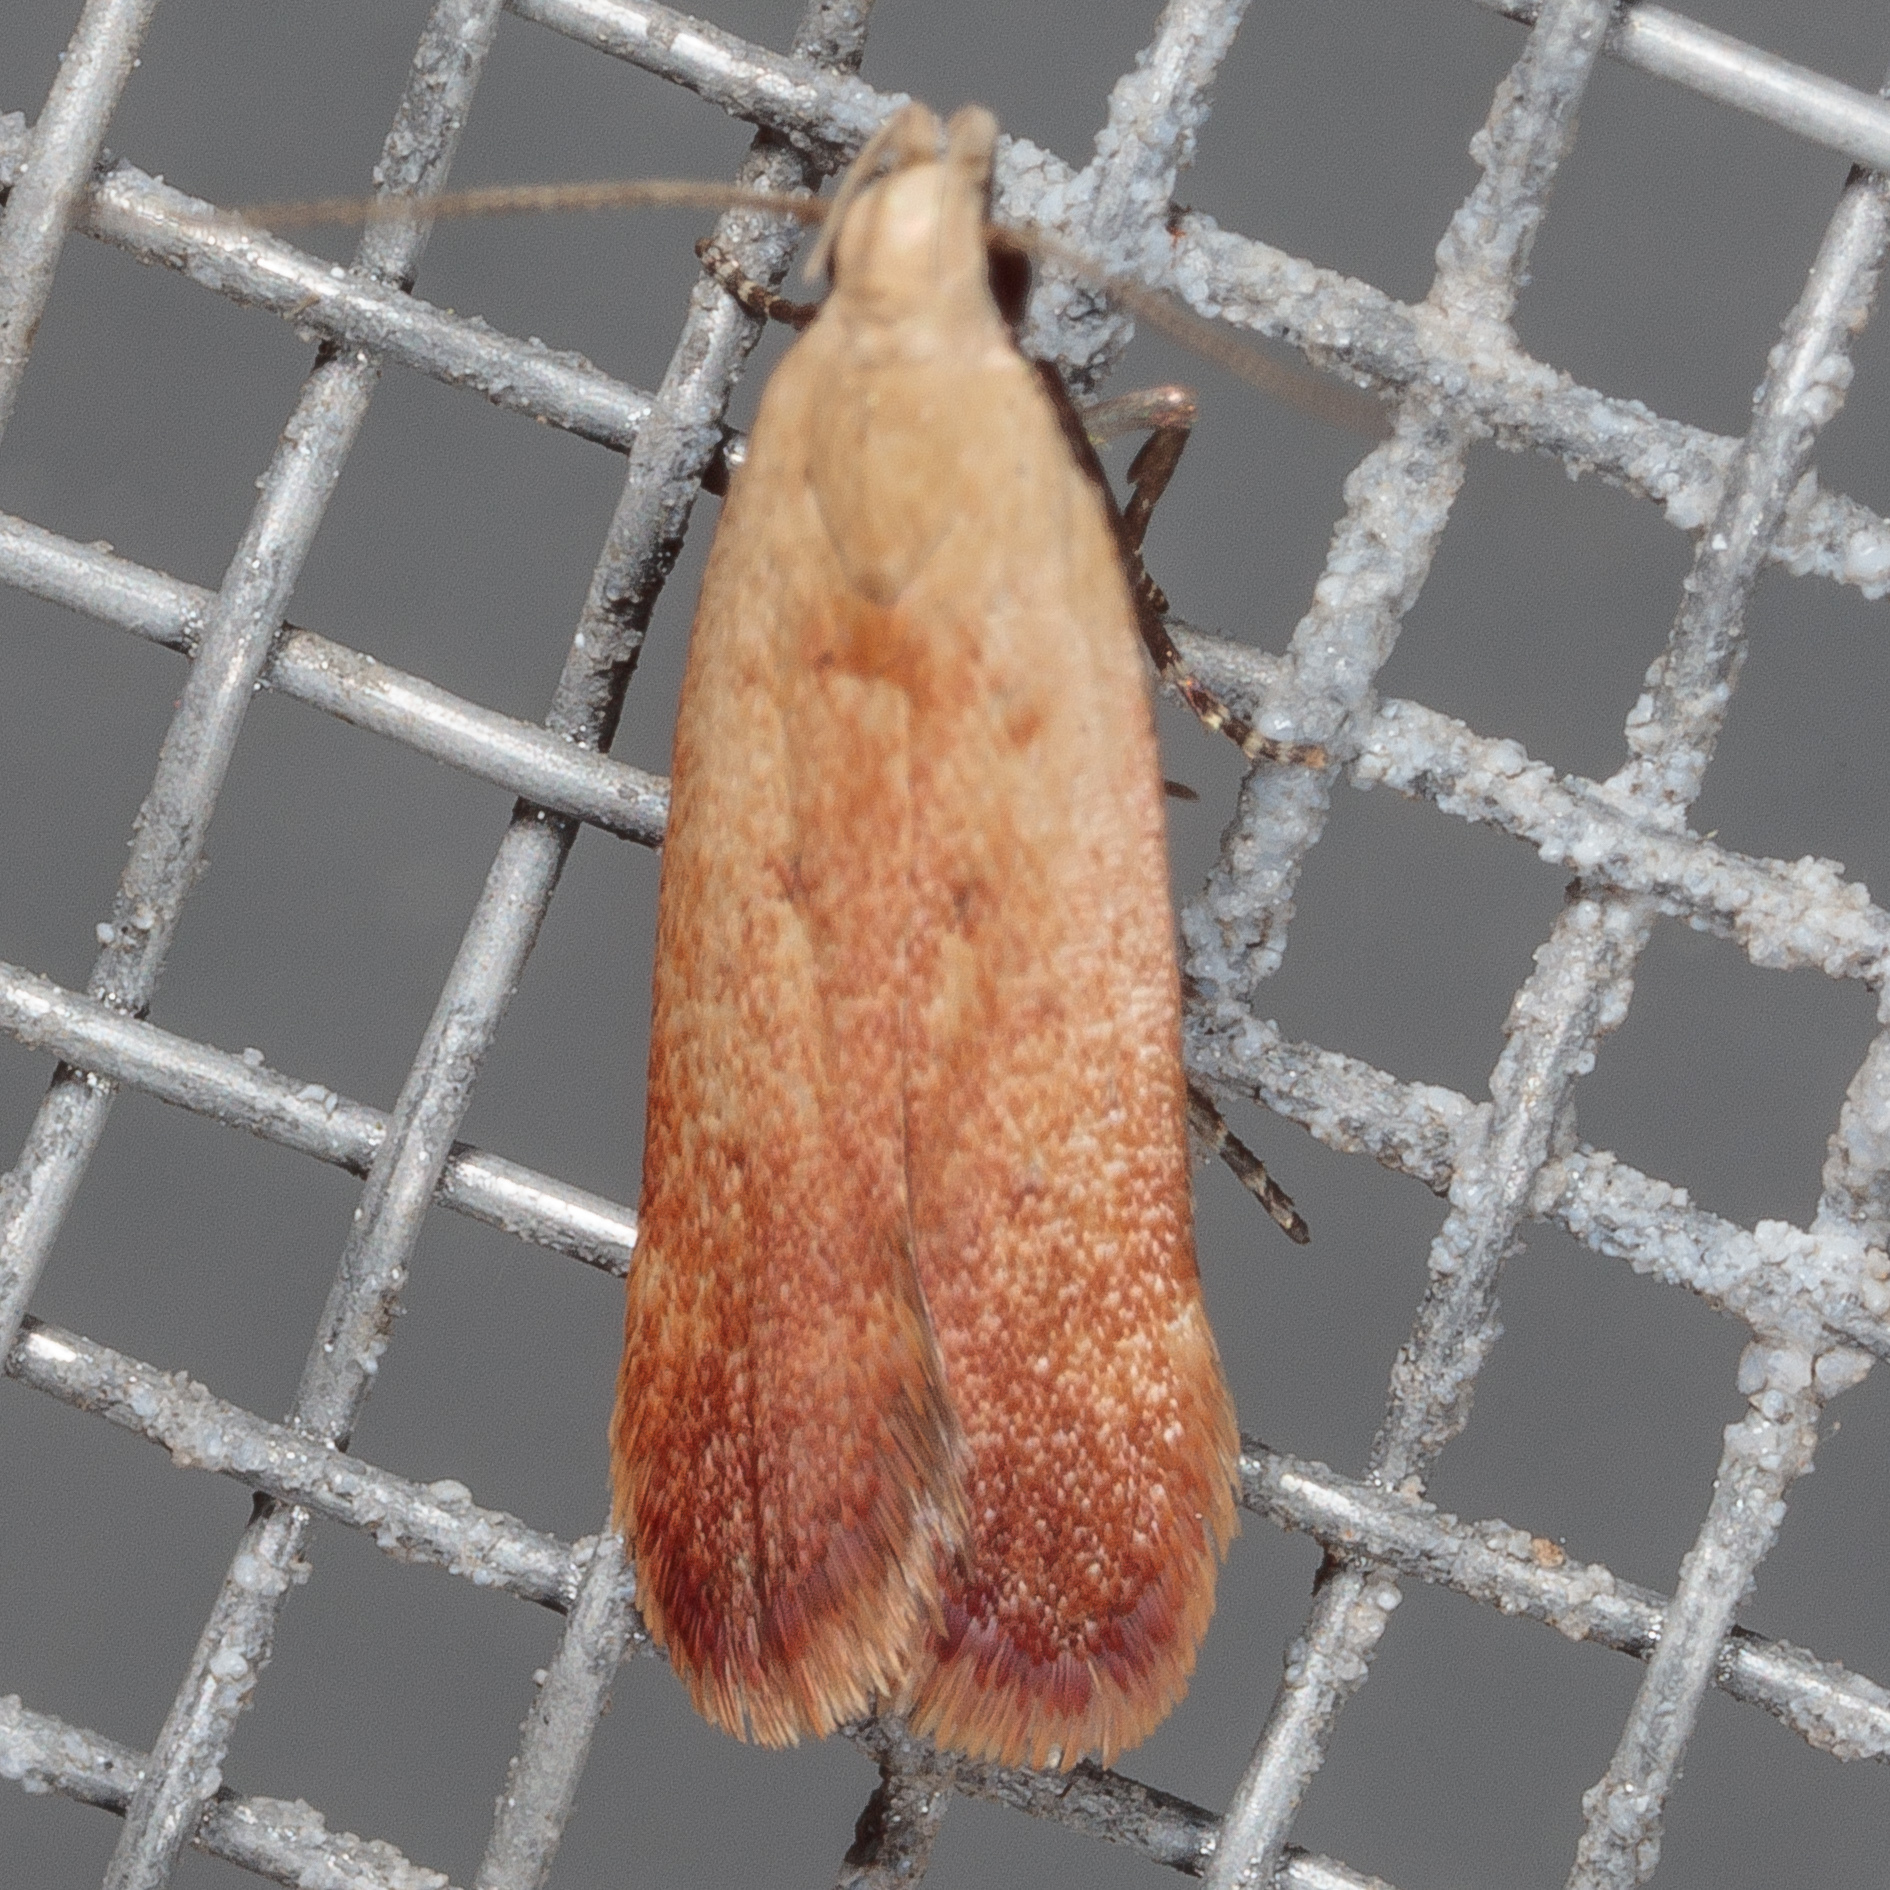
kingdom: Animalia
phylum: Arthropoda
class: Insecta
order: Lepidoptera
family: Gelechiidae
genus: Anacampsis
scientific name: Anacampsis fullonella
